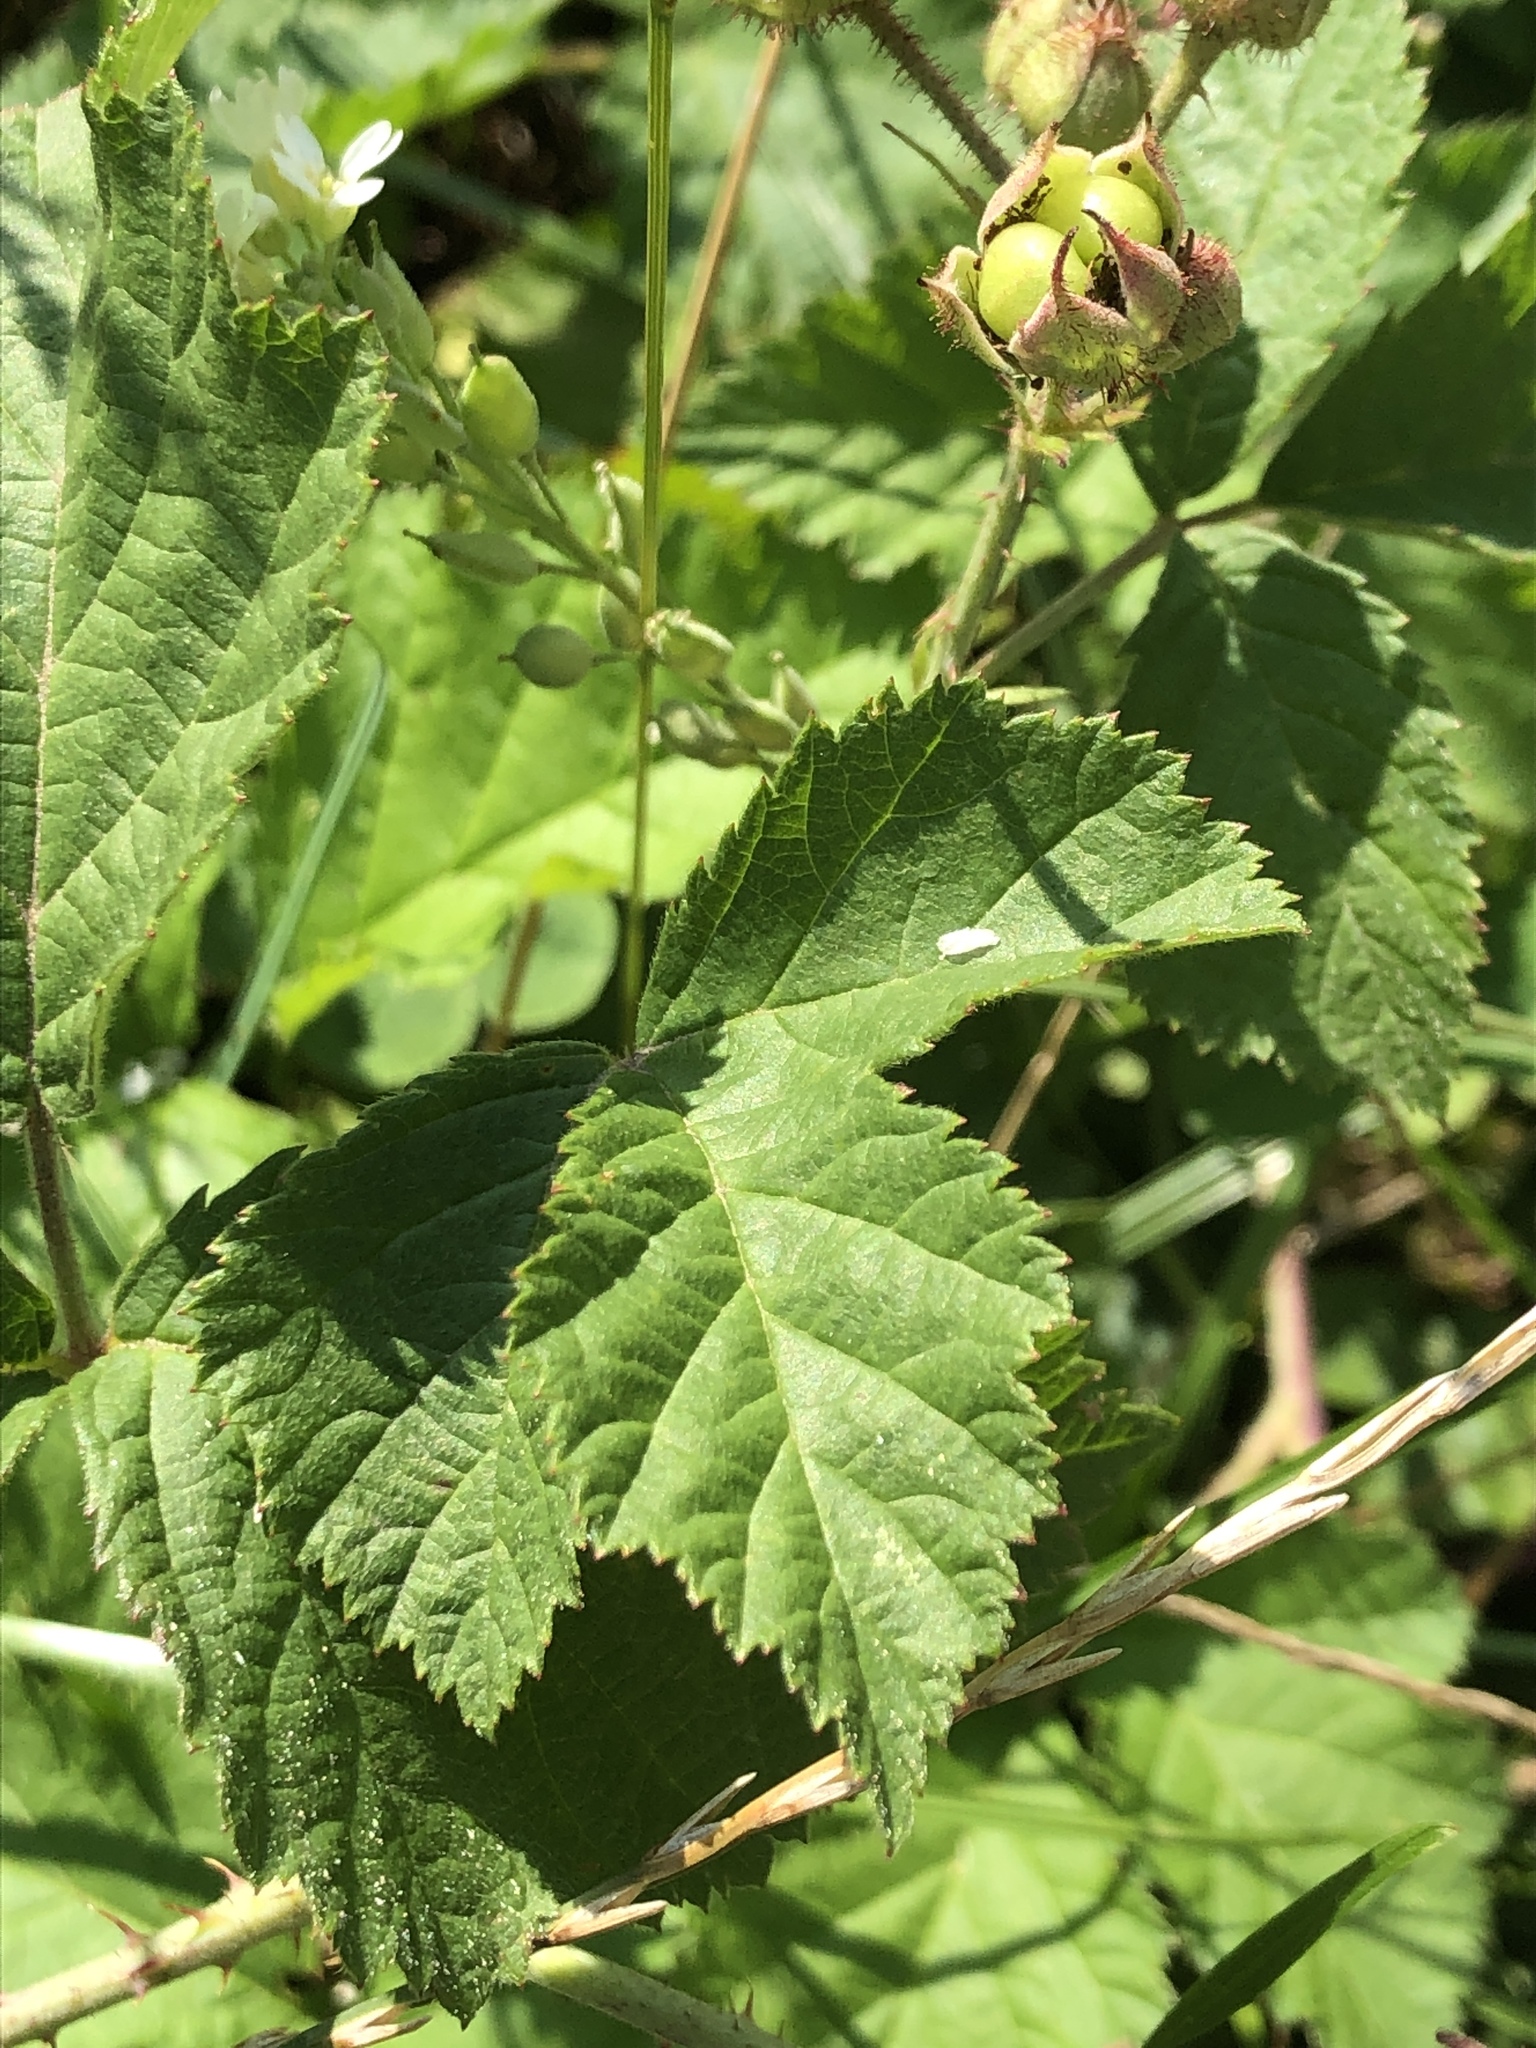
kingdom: Plantae
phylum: Tracheophyta
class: Magnoliopsida
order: Rosales
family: Rosaceae
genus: Rubus
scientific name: Rubus caesius
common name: Dewberry
